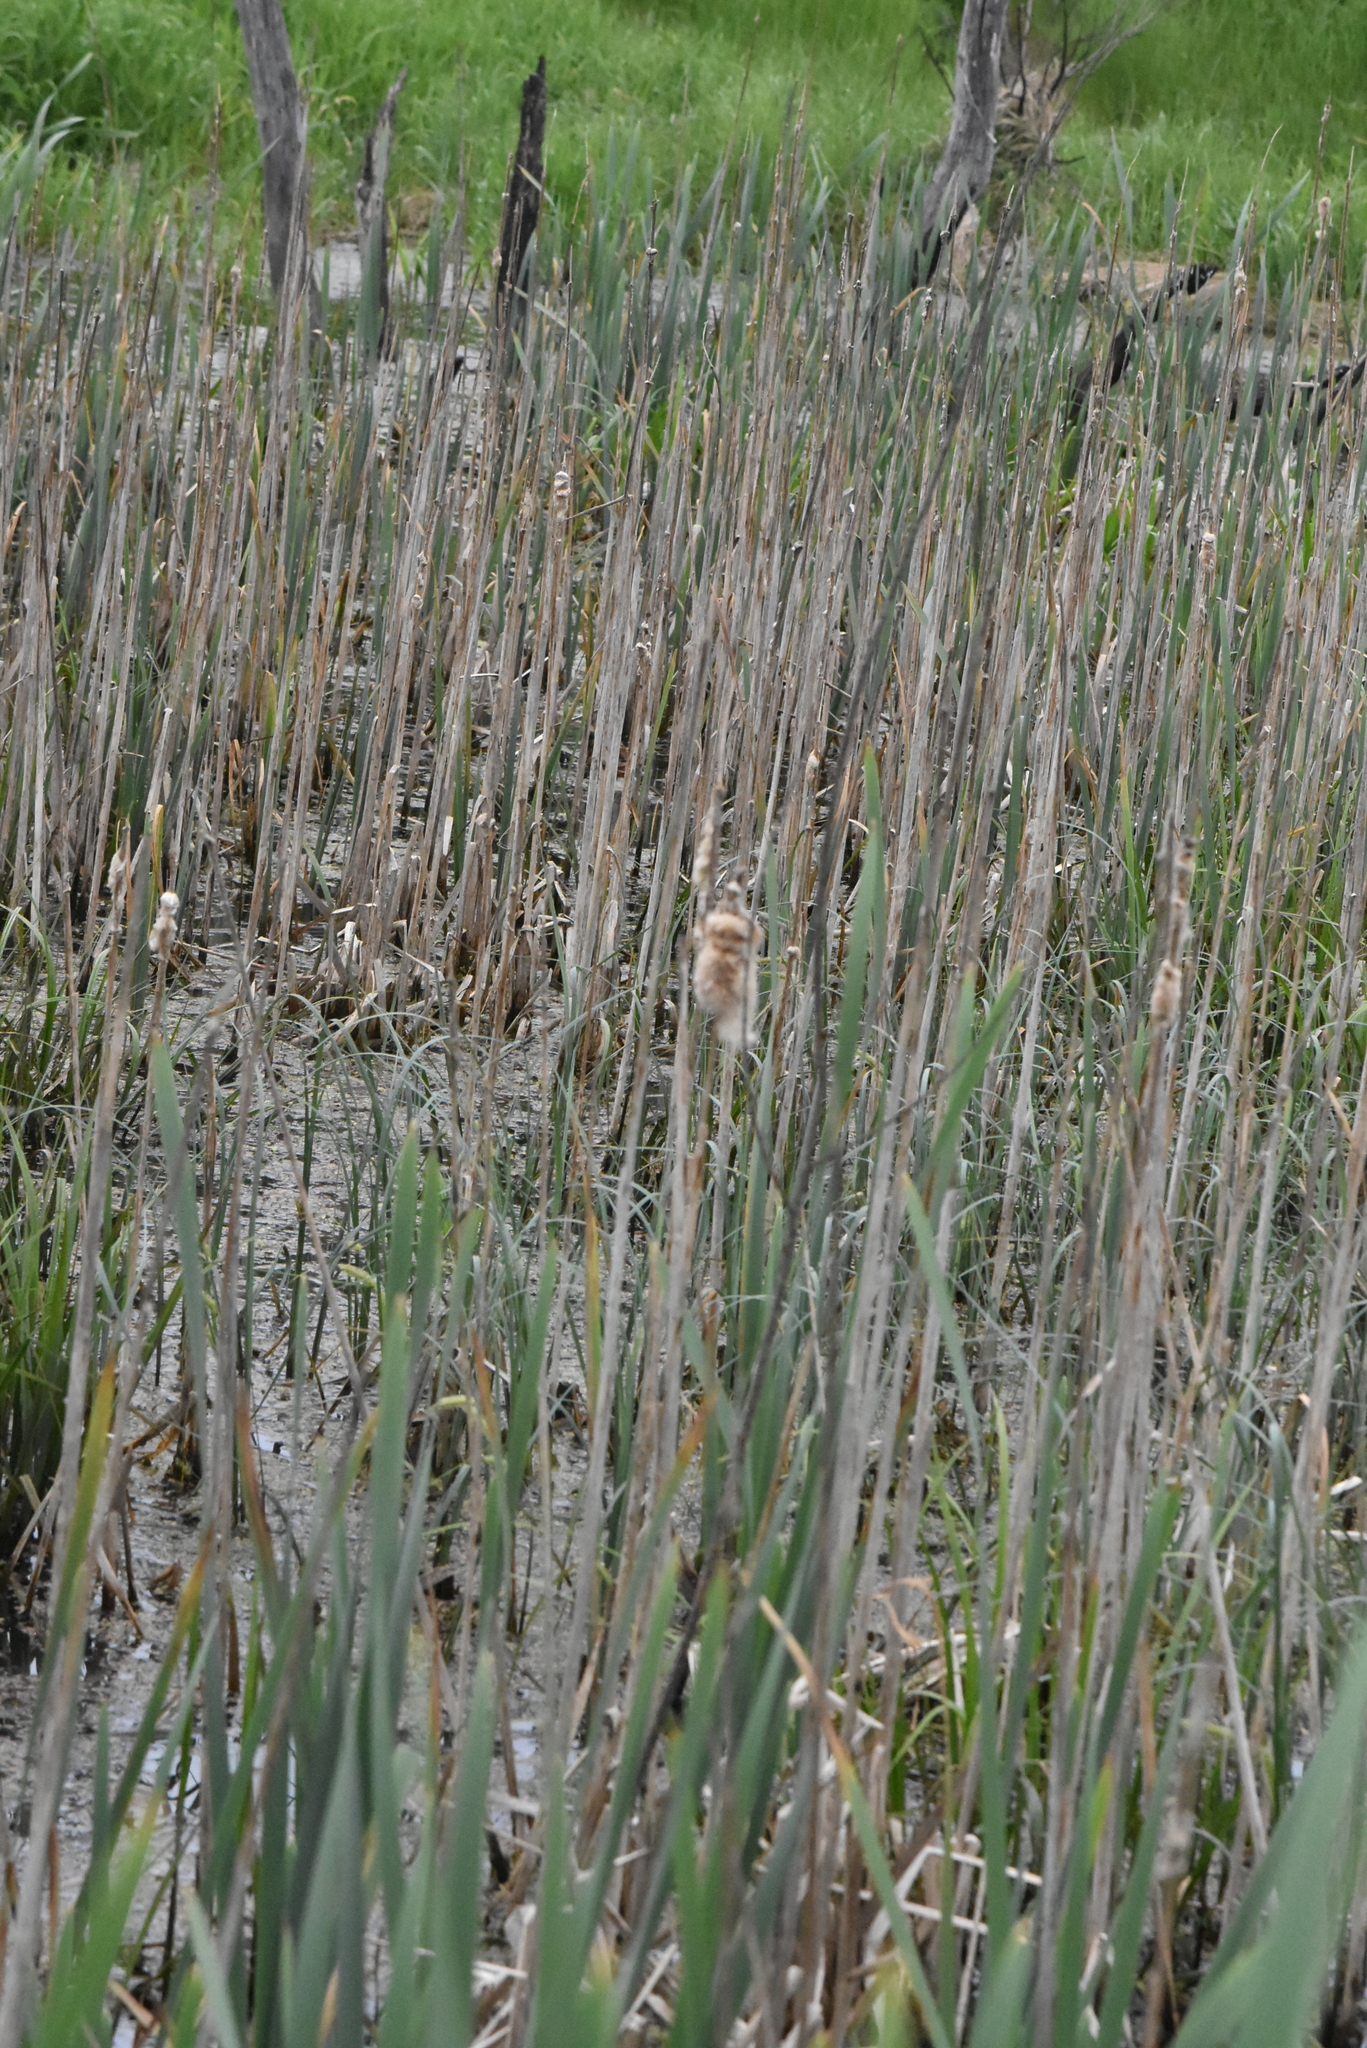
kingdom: Plantae
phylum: Tracheophyta
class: Liliopsida
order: Poales
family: Typhaceae
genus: Typha
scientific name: Typha latifolia
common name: Broadleaf cattail
